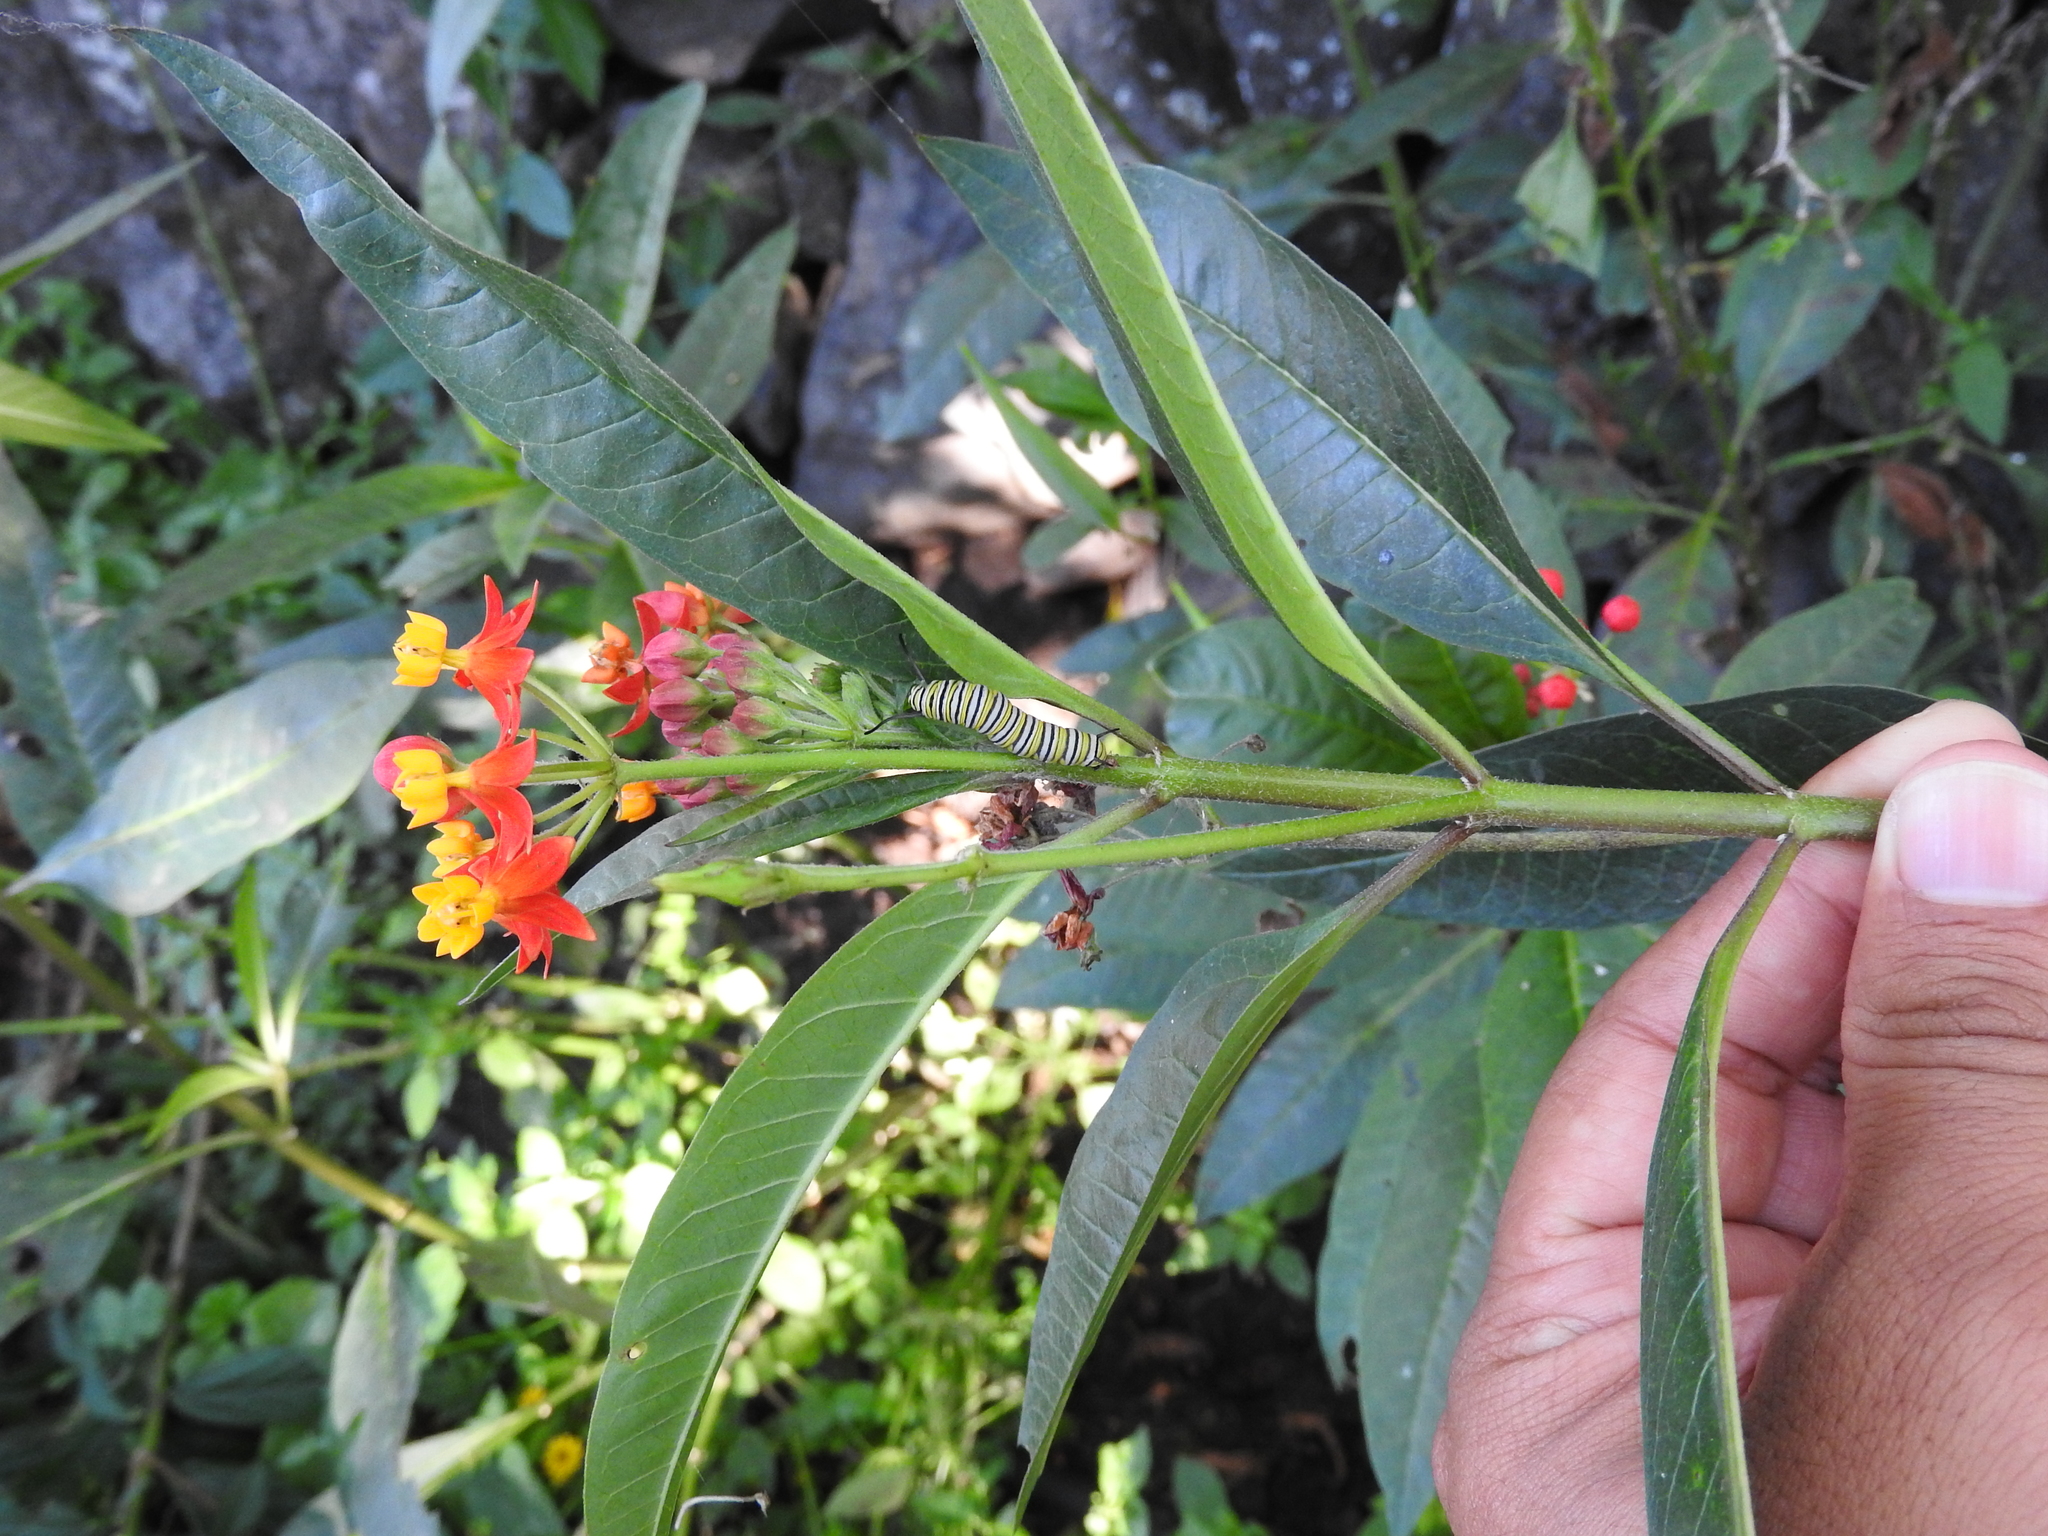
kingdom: Animalia
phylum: Arthropoda
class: Insecta
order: Lepidoptera
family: Nymphalidae
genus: Danaus
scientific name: Danaus plexippus
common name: Monarch
